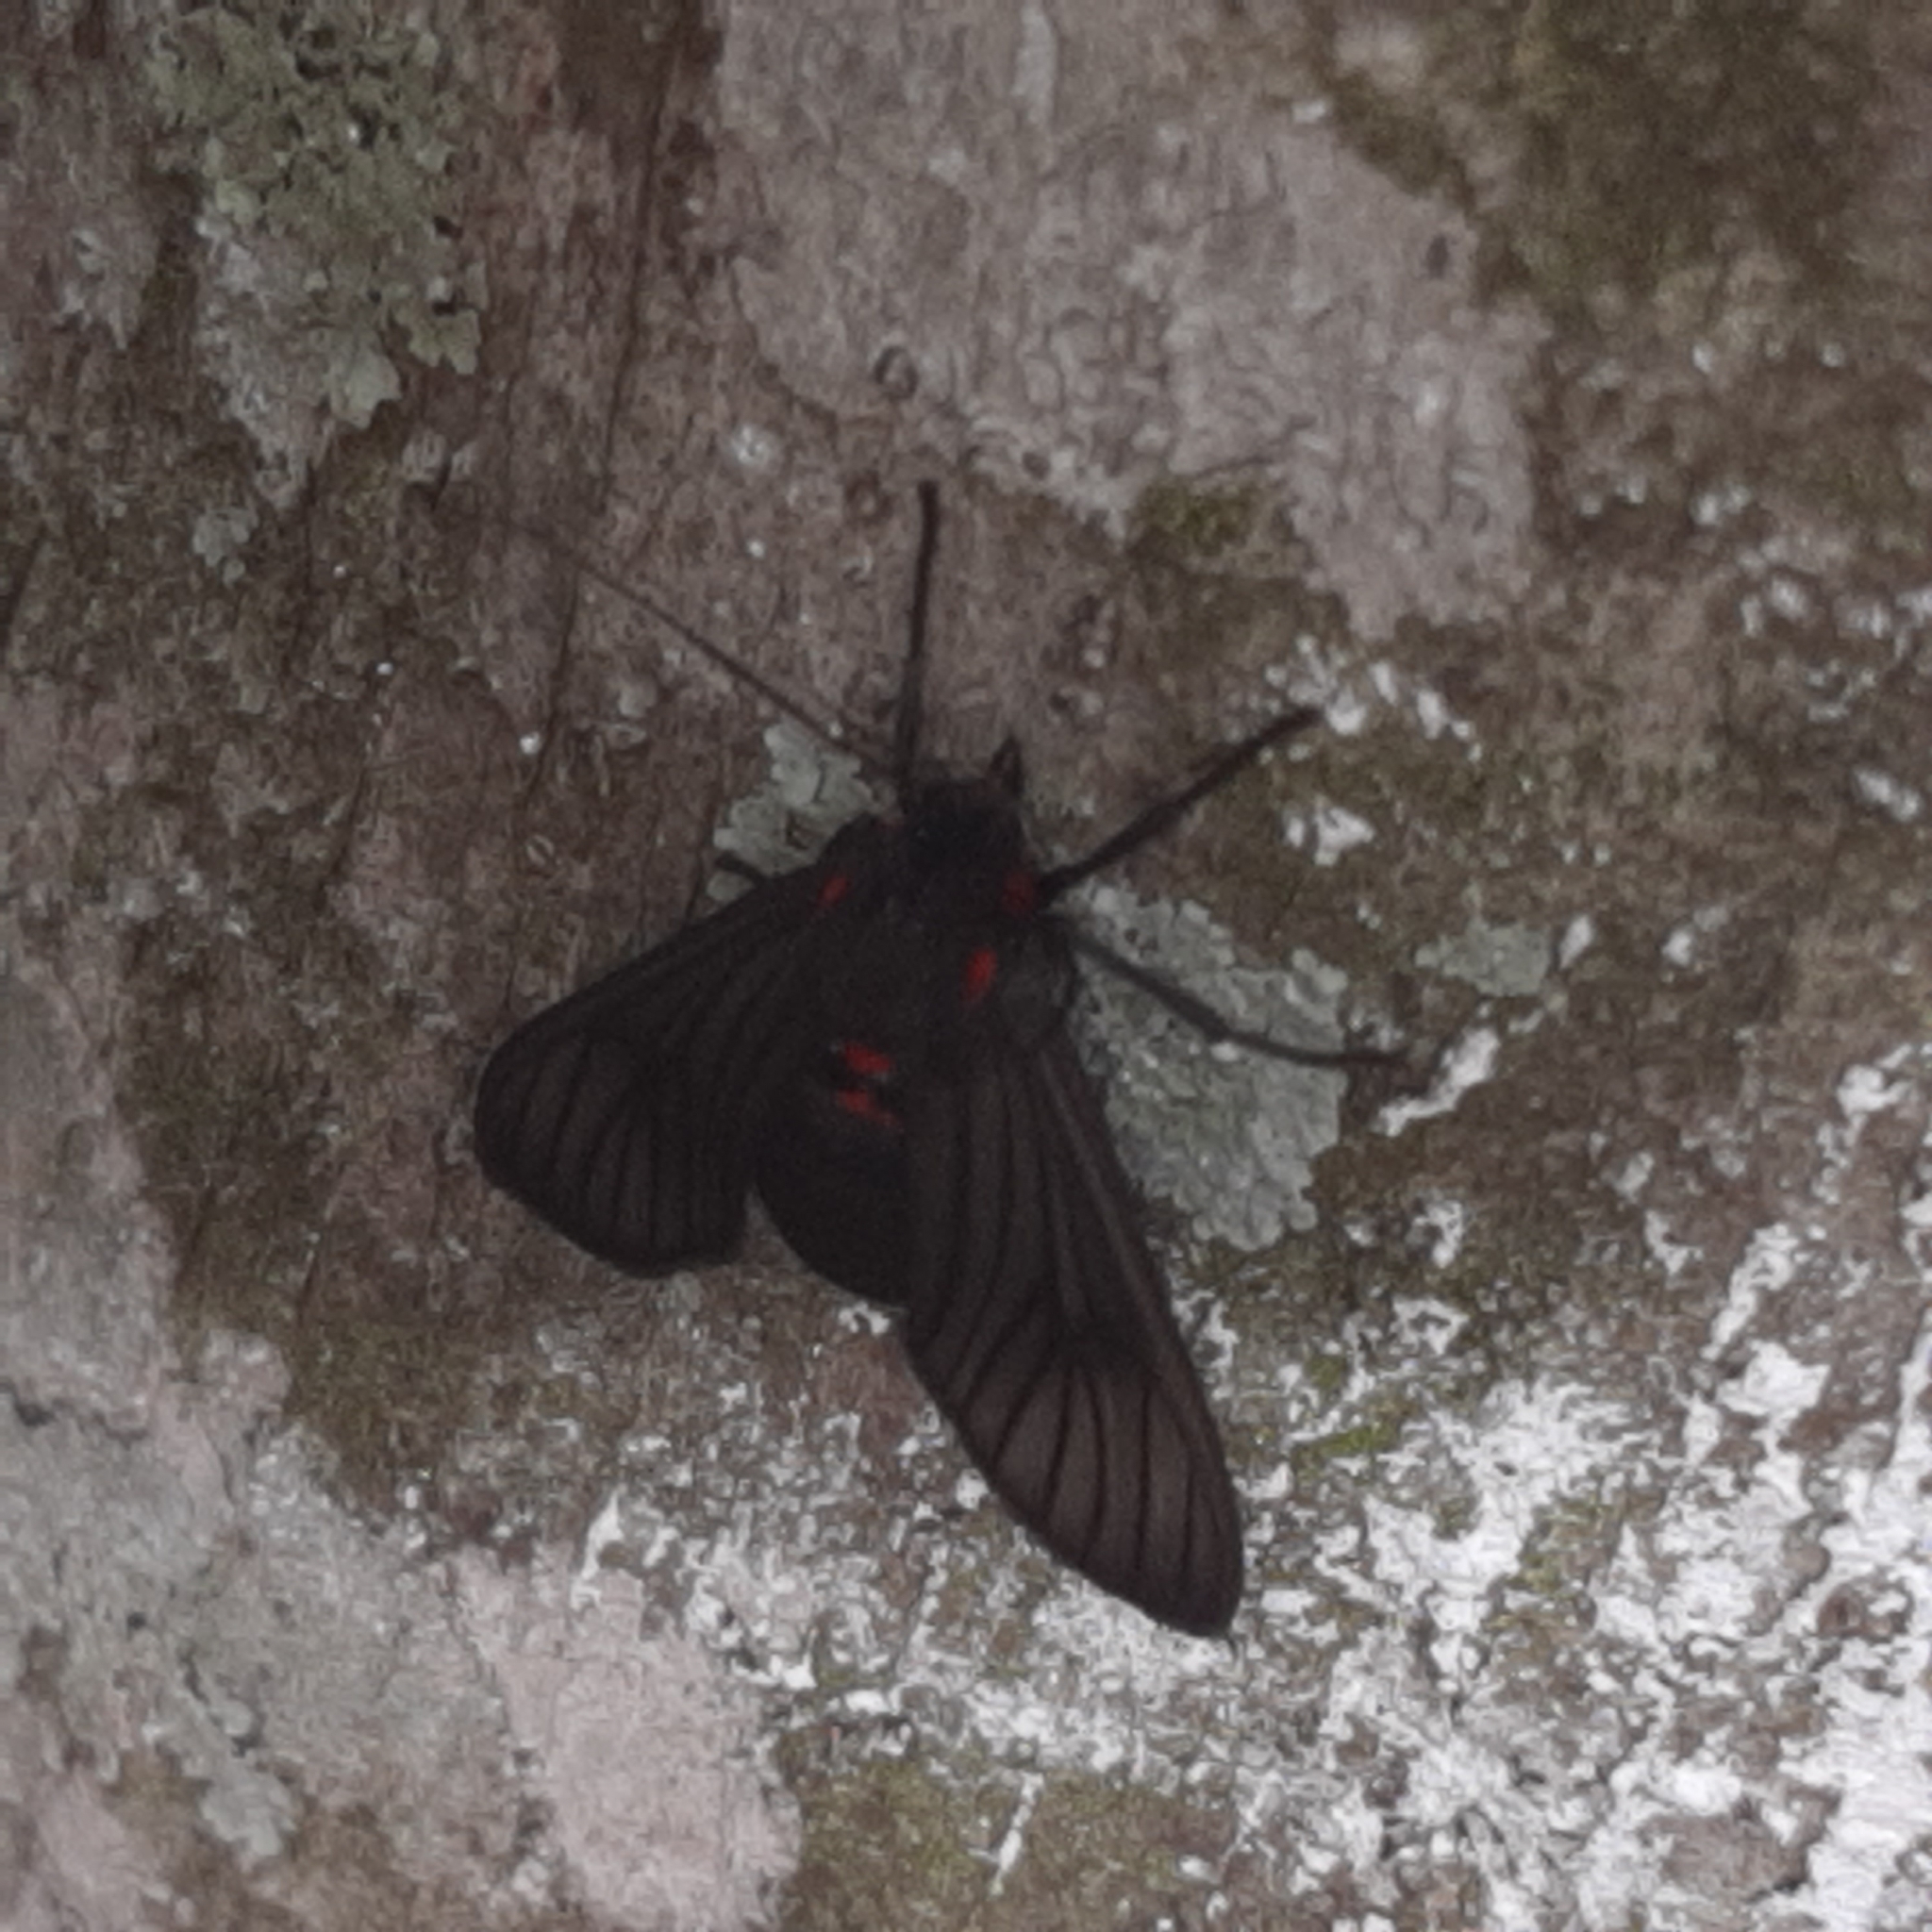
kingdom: Animalia
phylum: Arthropoda
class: Insecta
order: Lepidoptera
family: Erebidae
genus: Saurita
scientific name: Saurita nigripalpia
